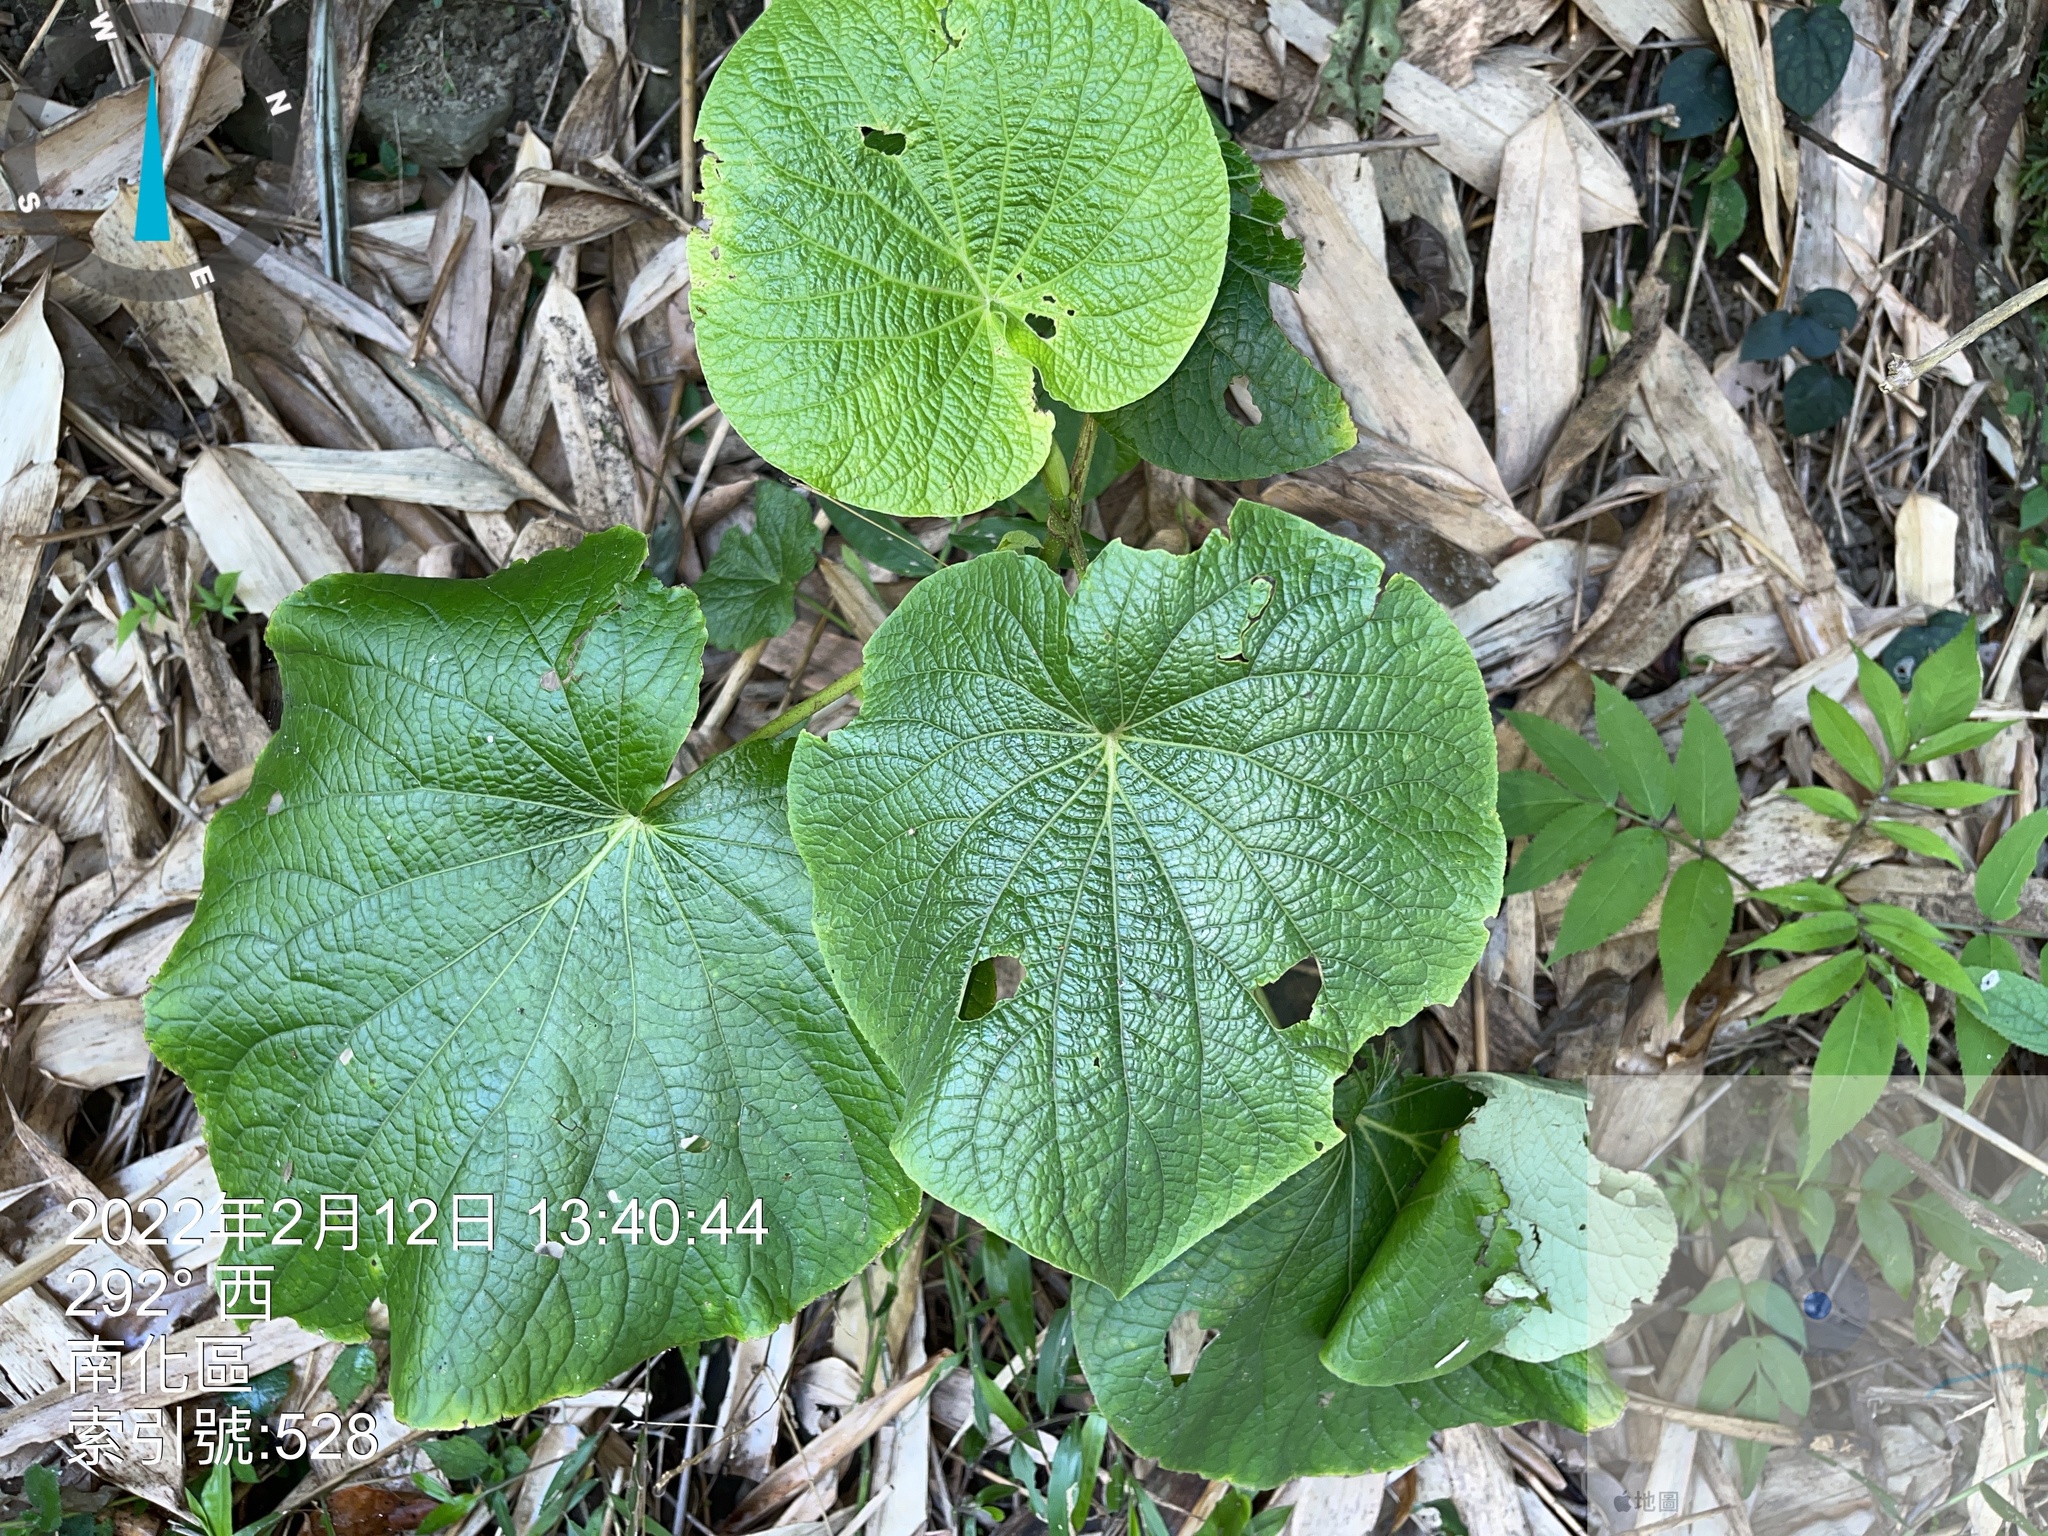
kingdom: Plantae
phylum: Tracheophyta
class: Magnoliopsida
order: Piperales
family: Piperaceae
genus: Piper
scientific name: Piper umbellatum
